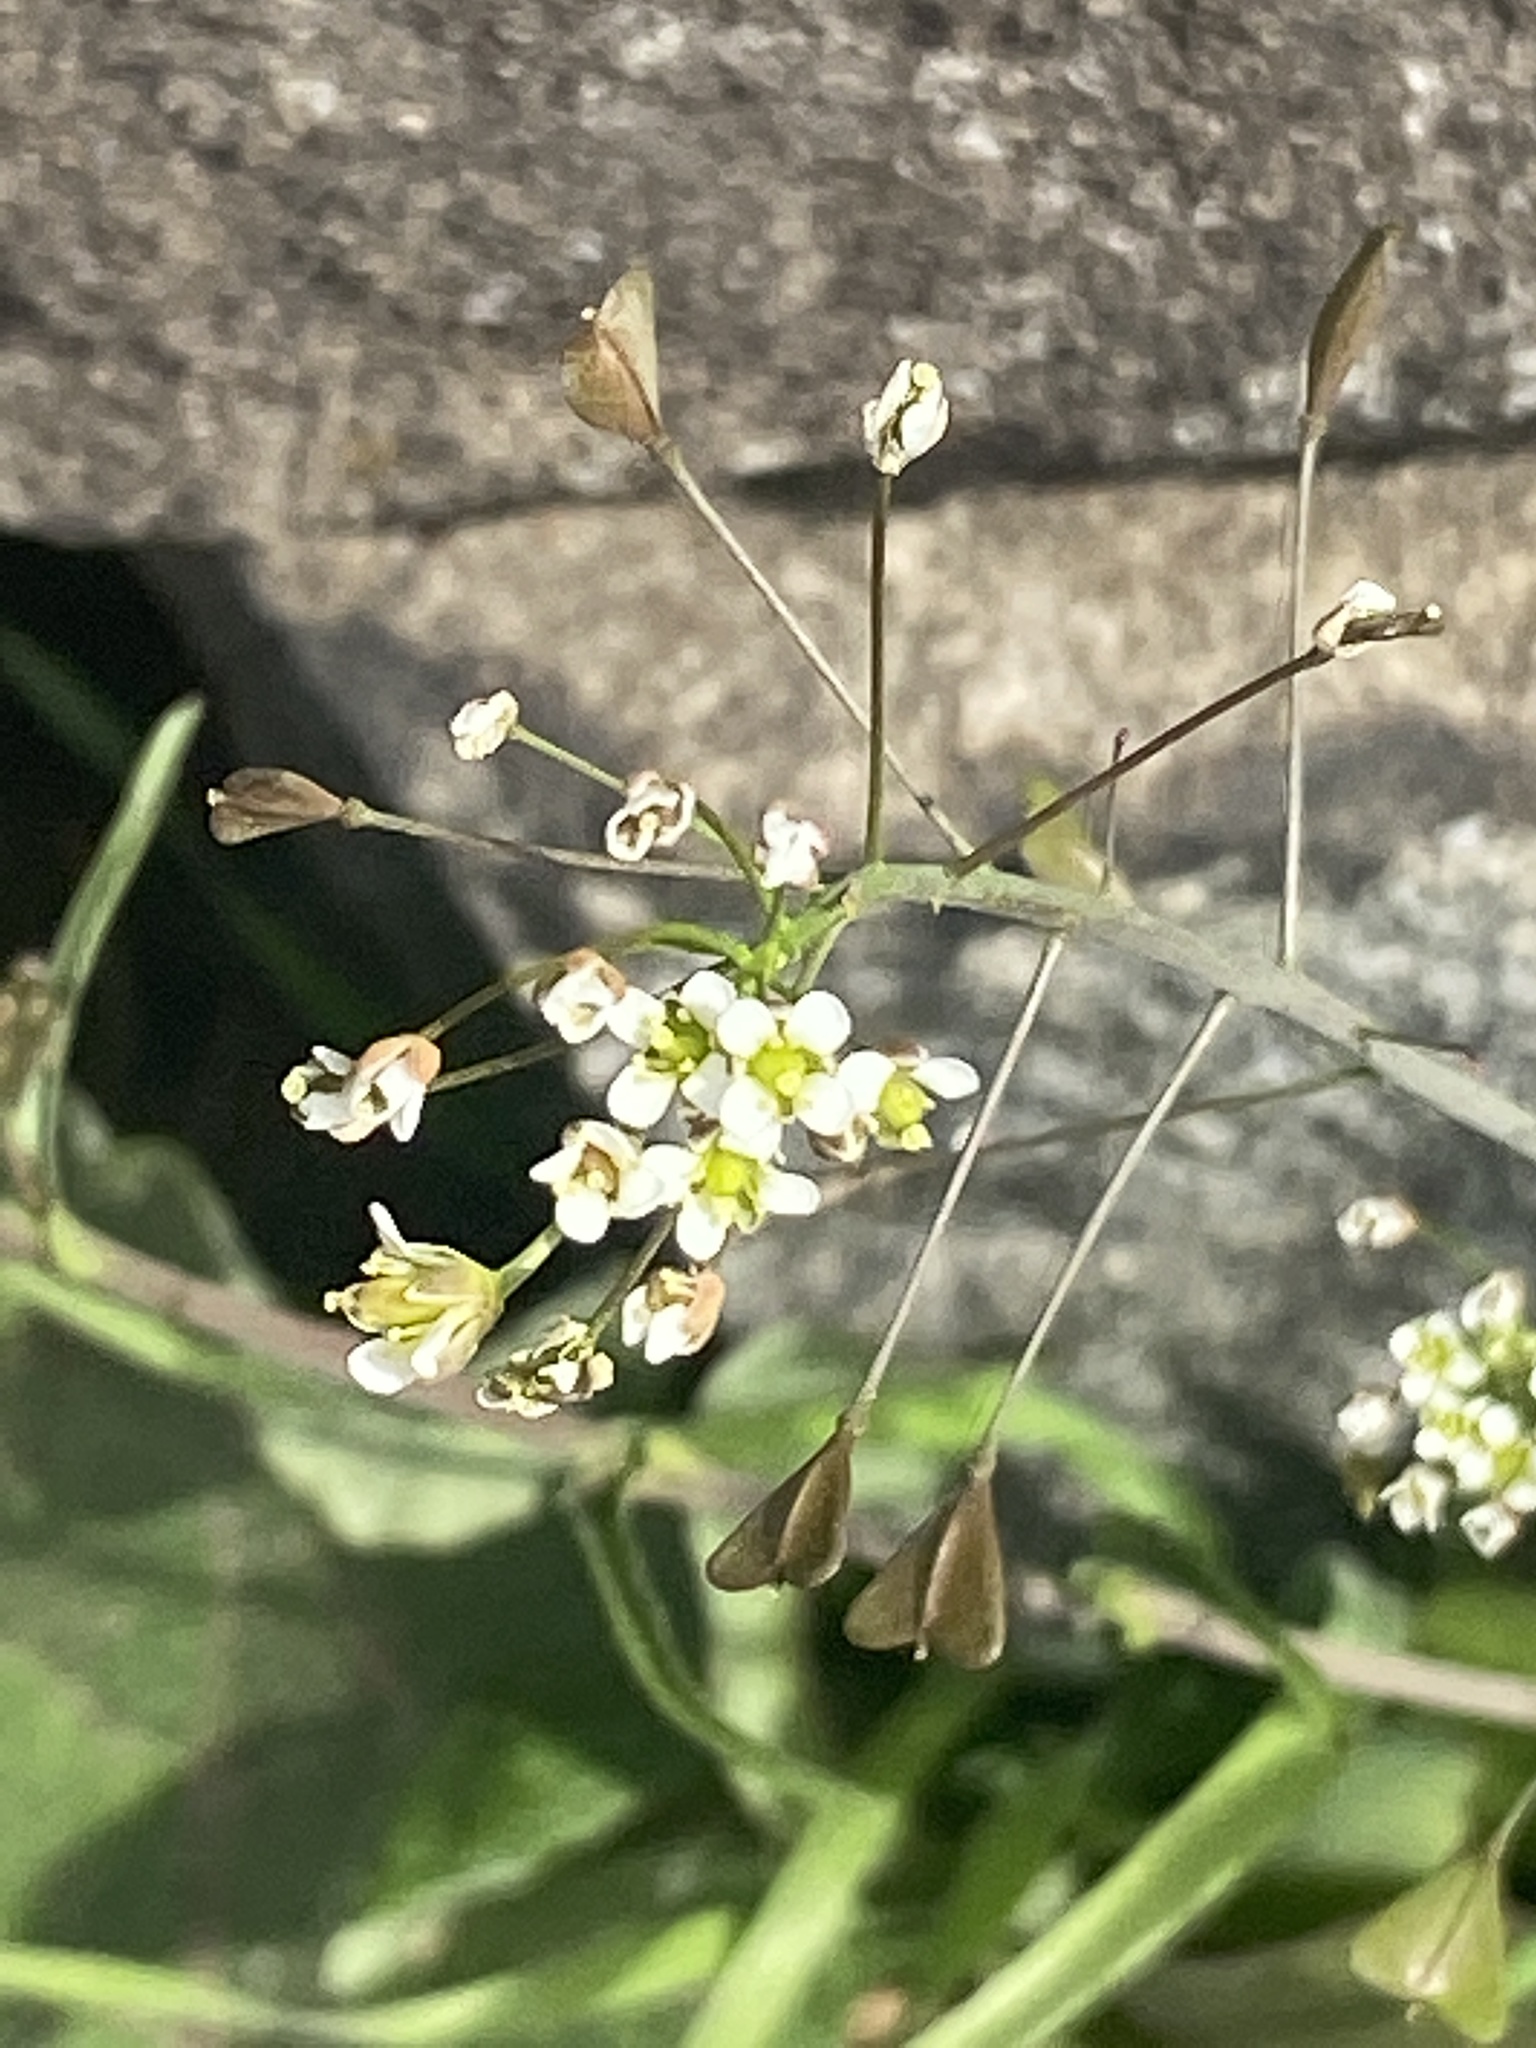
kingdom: Plantae
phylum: Tracheophyta
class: Magnoliopsida
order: Brassicales
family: Brassicaceae
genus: Capsella
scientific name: Capsella bursa-pastoris
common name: Shepherd's purse
